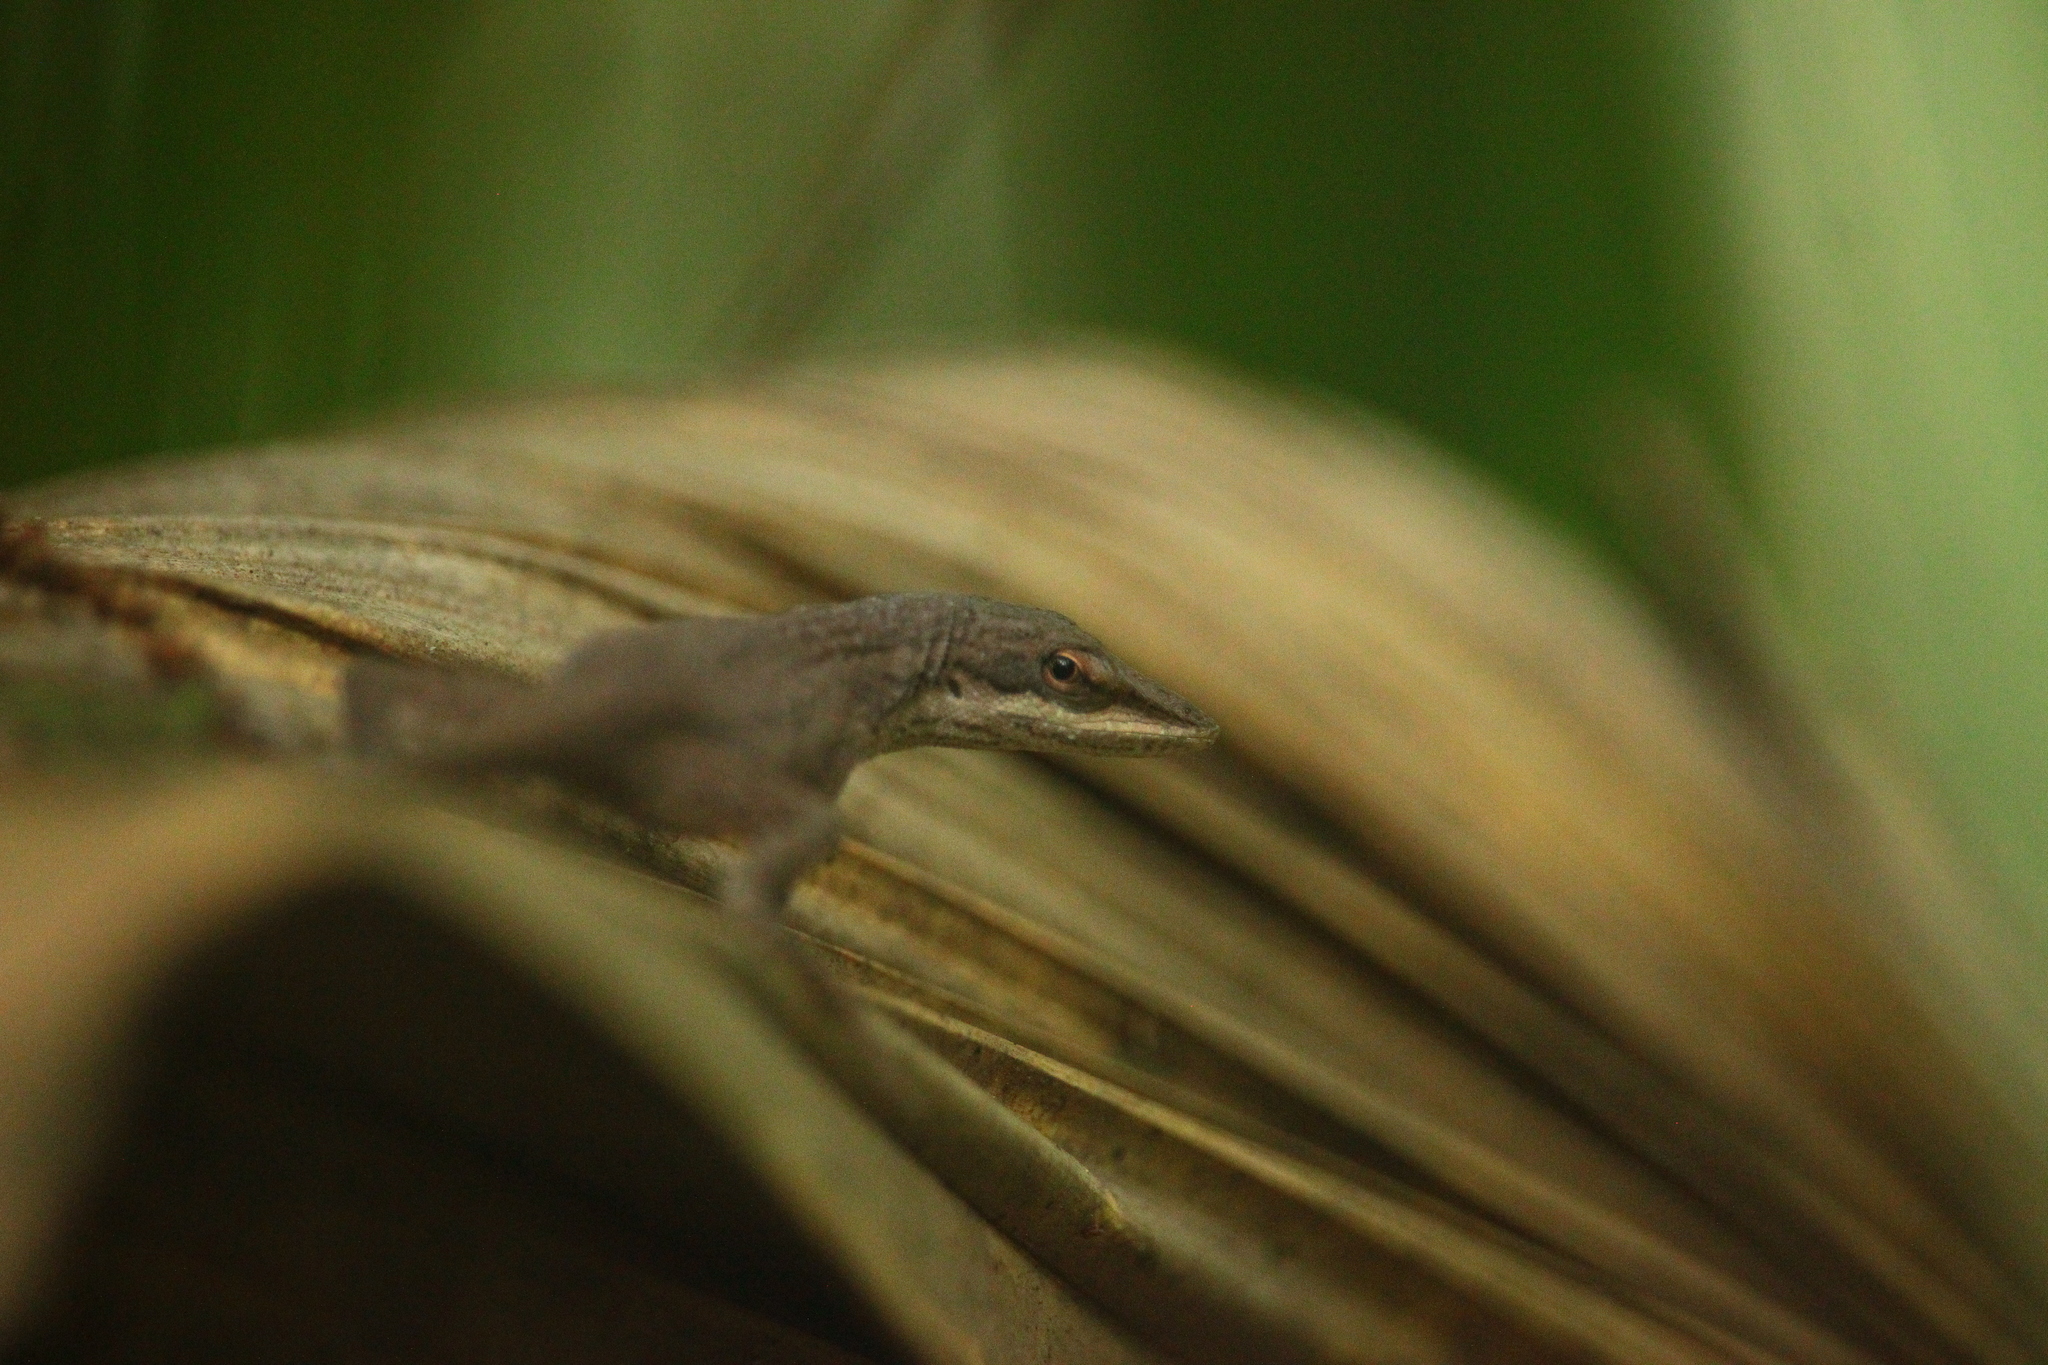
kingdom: Animalia
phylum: Chordata
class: Squamata
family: Dactyloidae
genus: Anolis
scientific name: Anolis carolinensis
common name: Green anole
